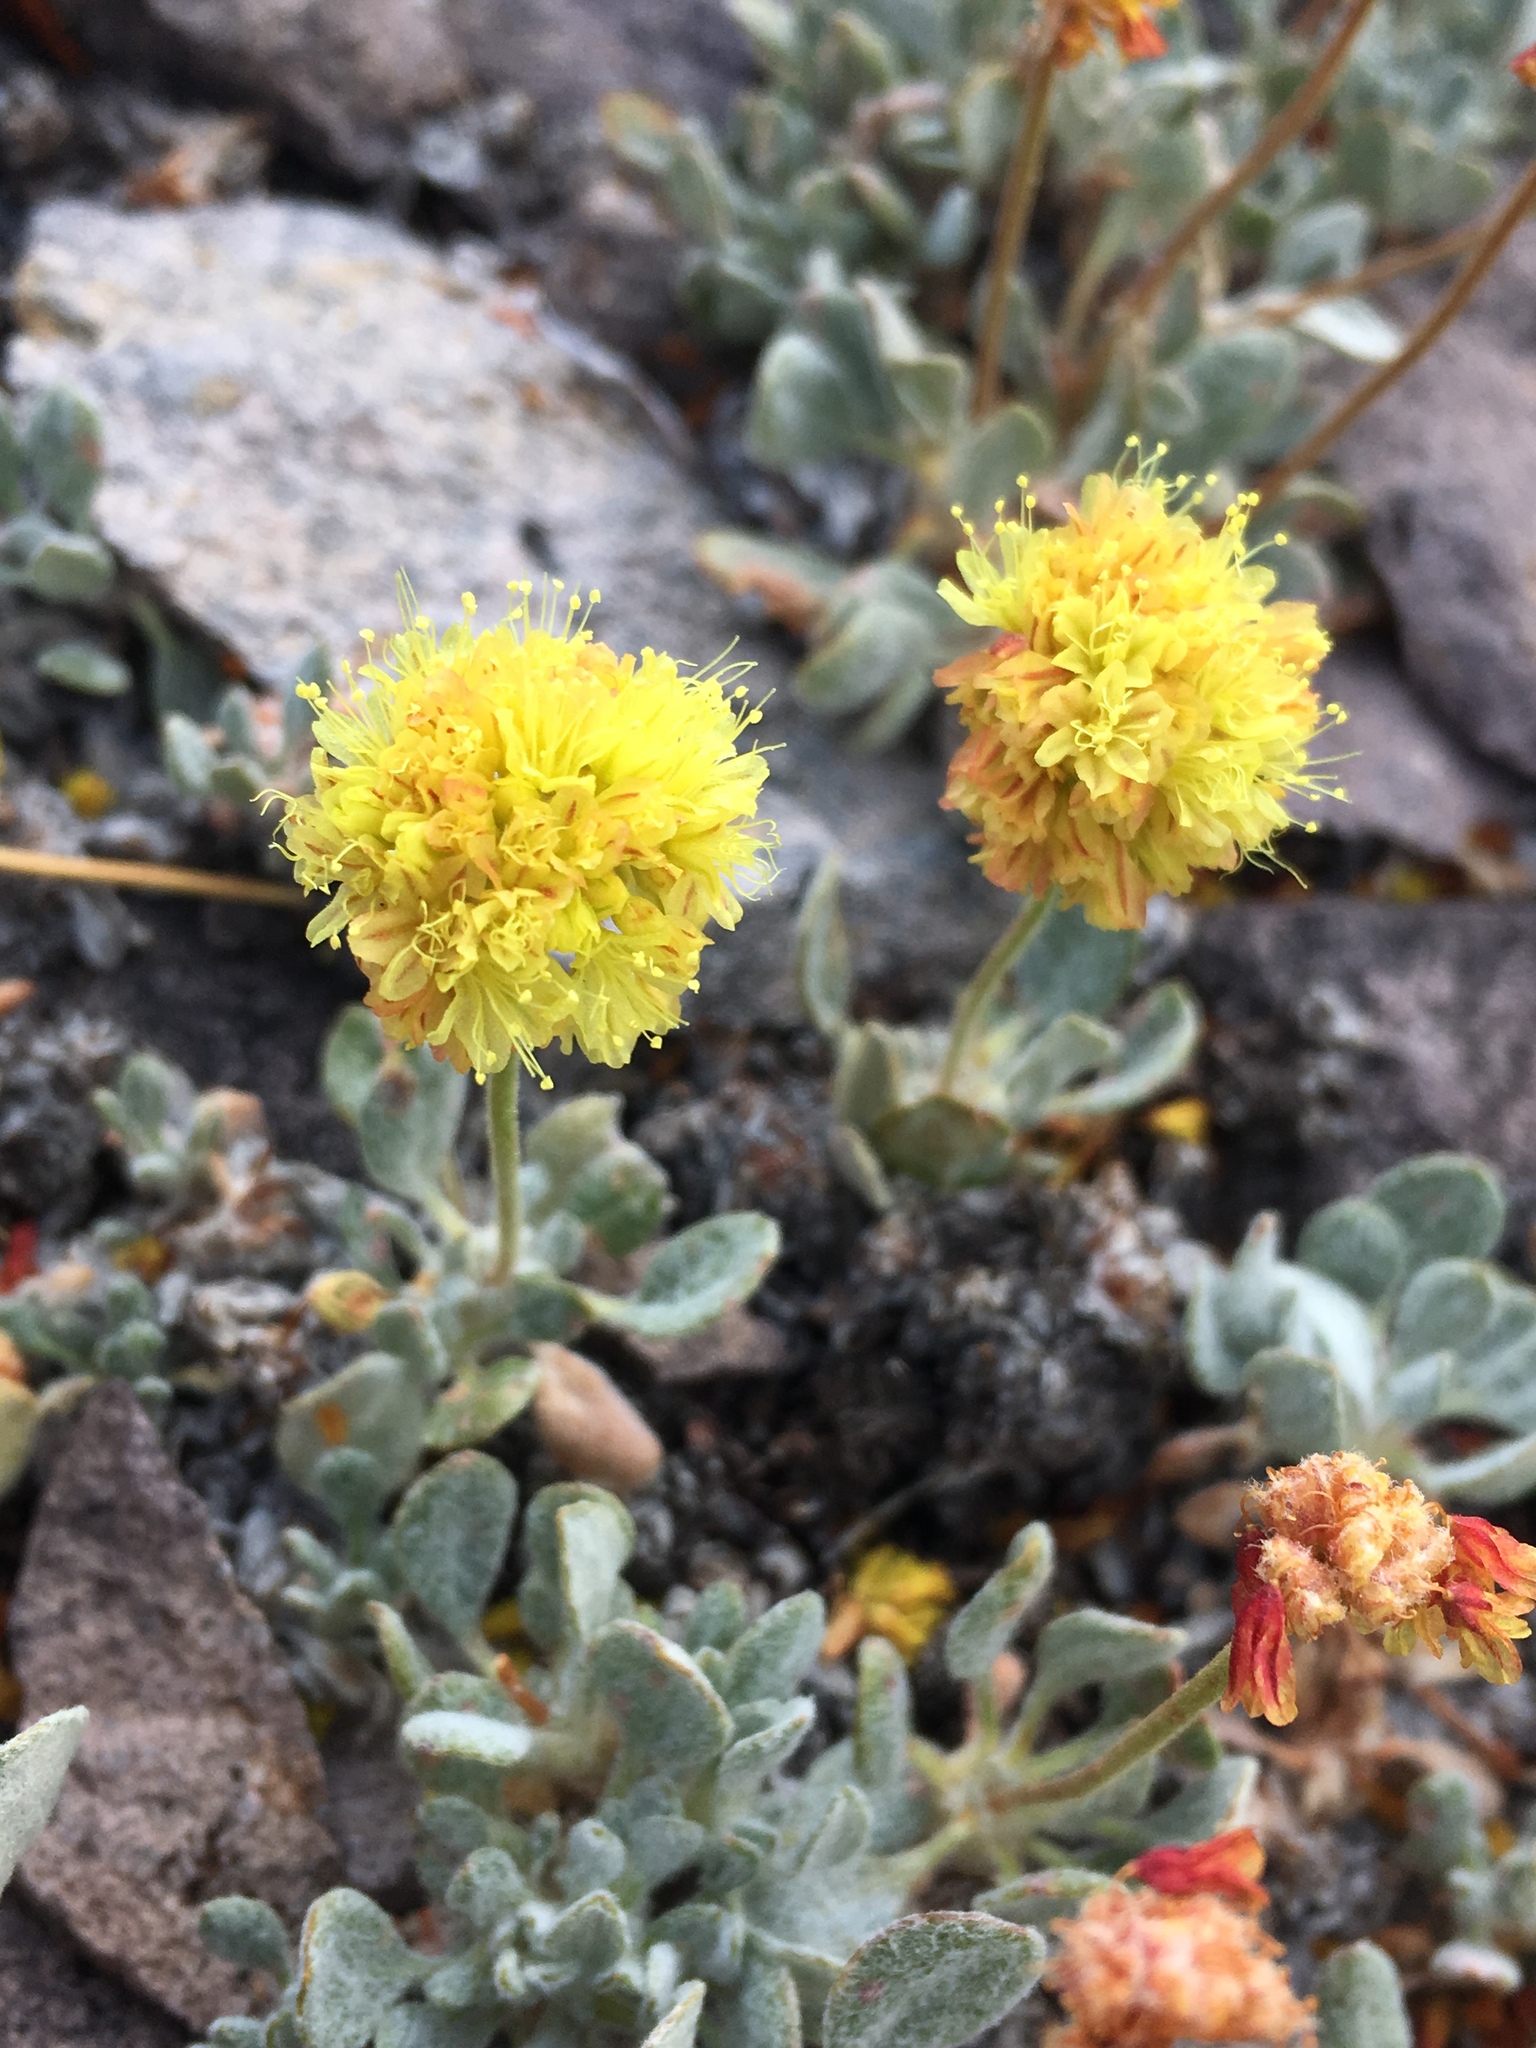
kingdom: Plantae
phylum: Tracheophyta
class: Magnoliopsida
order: Caryophyllales
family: Polygonaceae
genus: Eriogonum
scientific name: Eriogonum rosense
